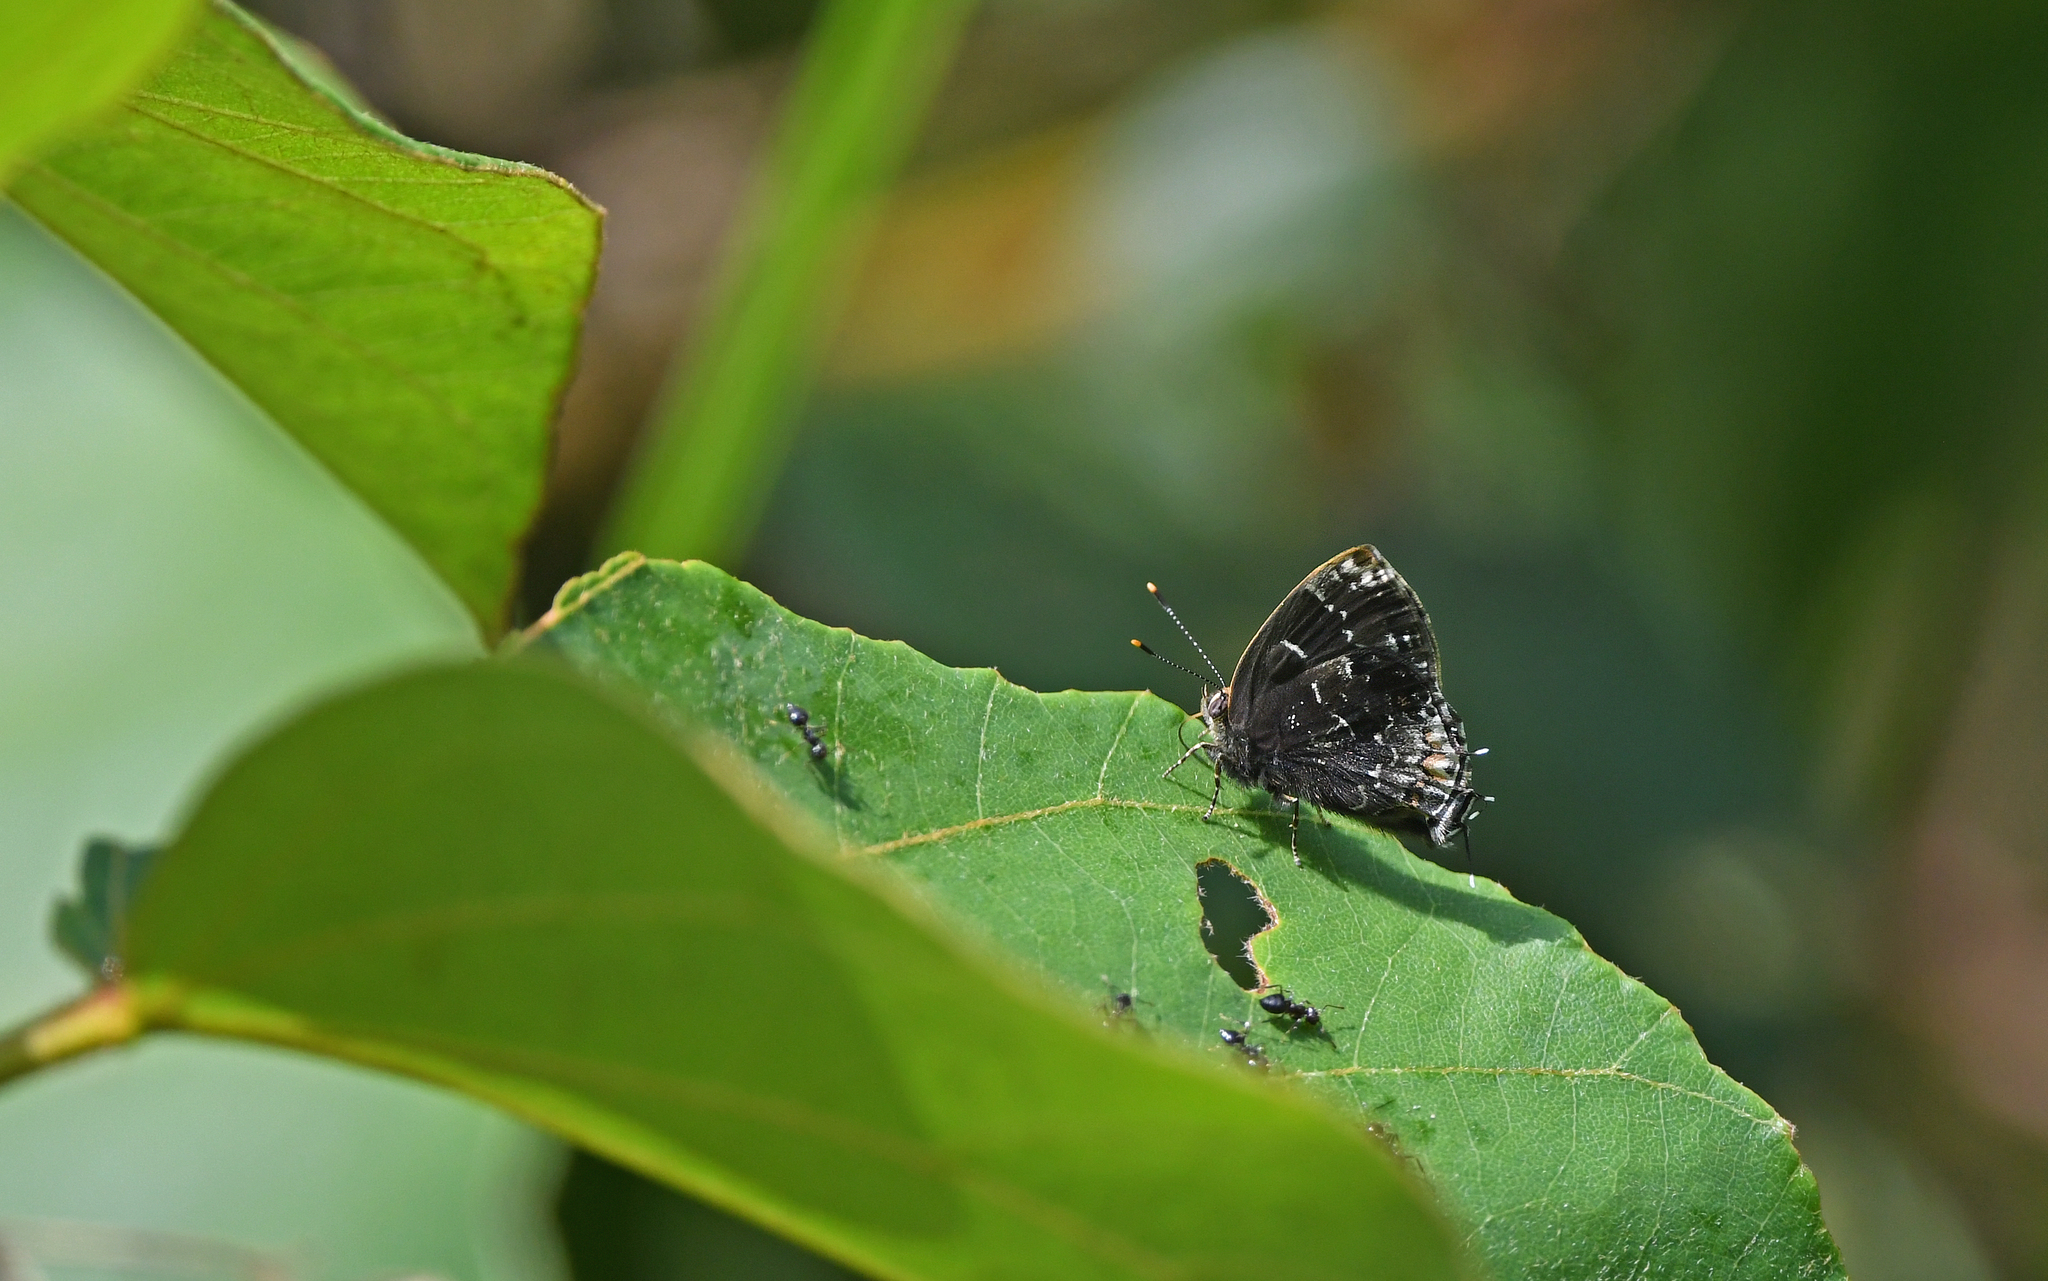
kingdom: Animalia
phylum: Arthropoda
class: Insecta
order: Lepidoptera
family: Lycaenidae
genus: Ocaria
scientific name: Ocaria ocrisia
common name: Black hairstreak
